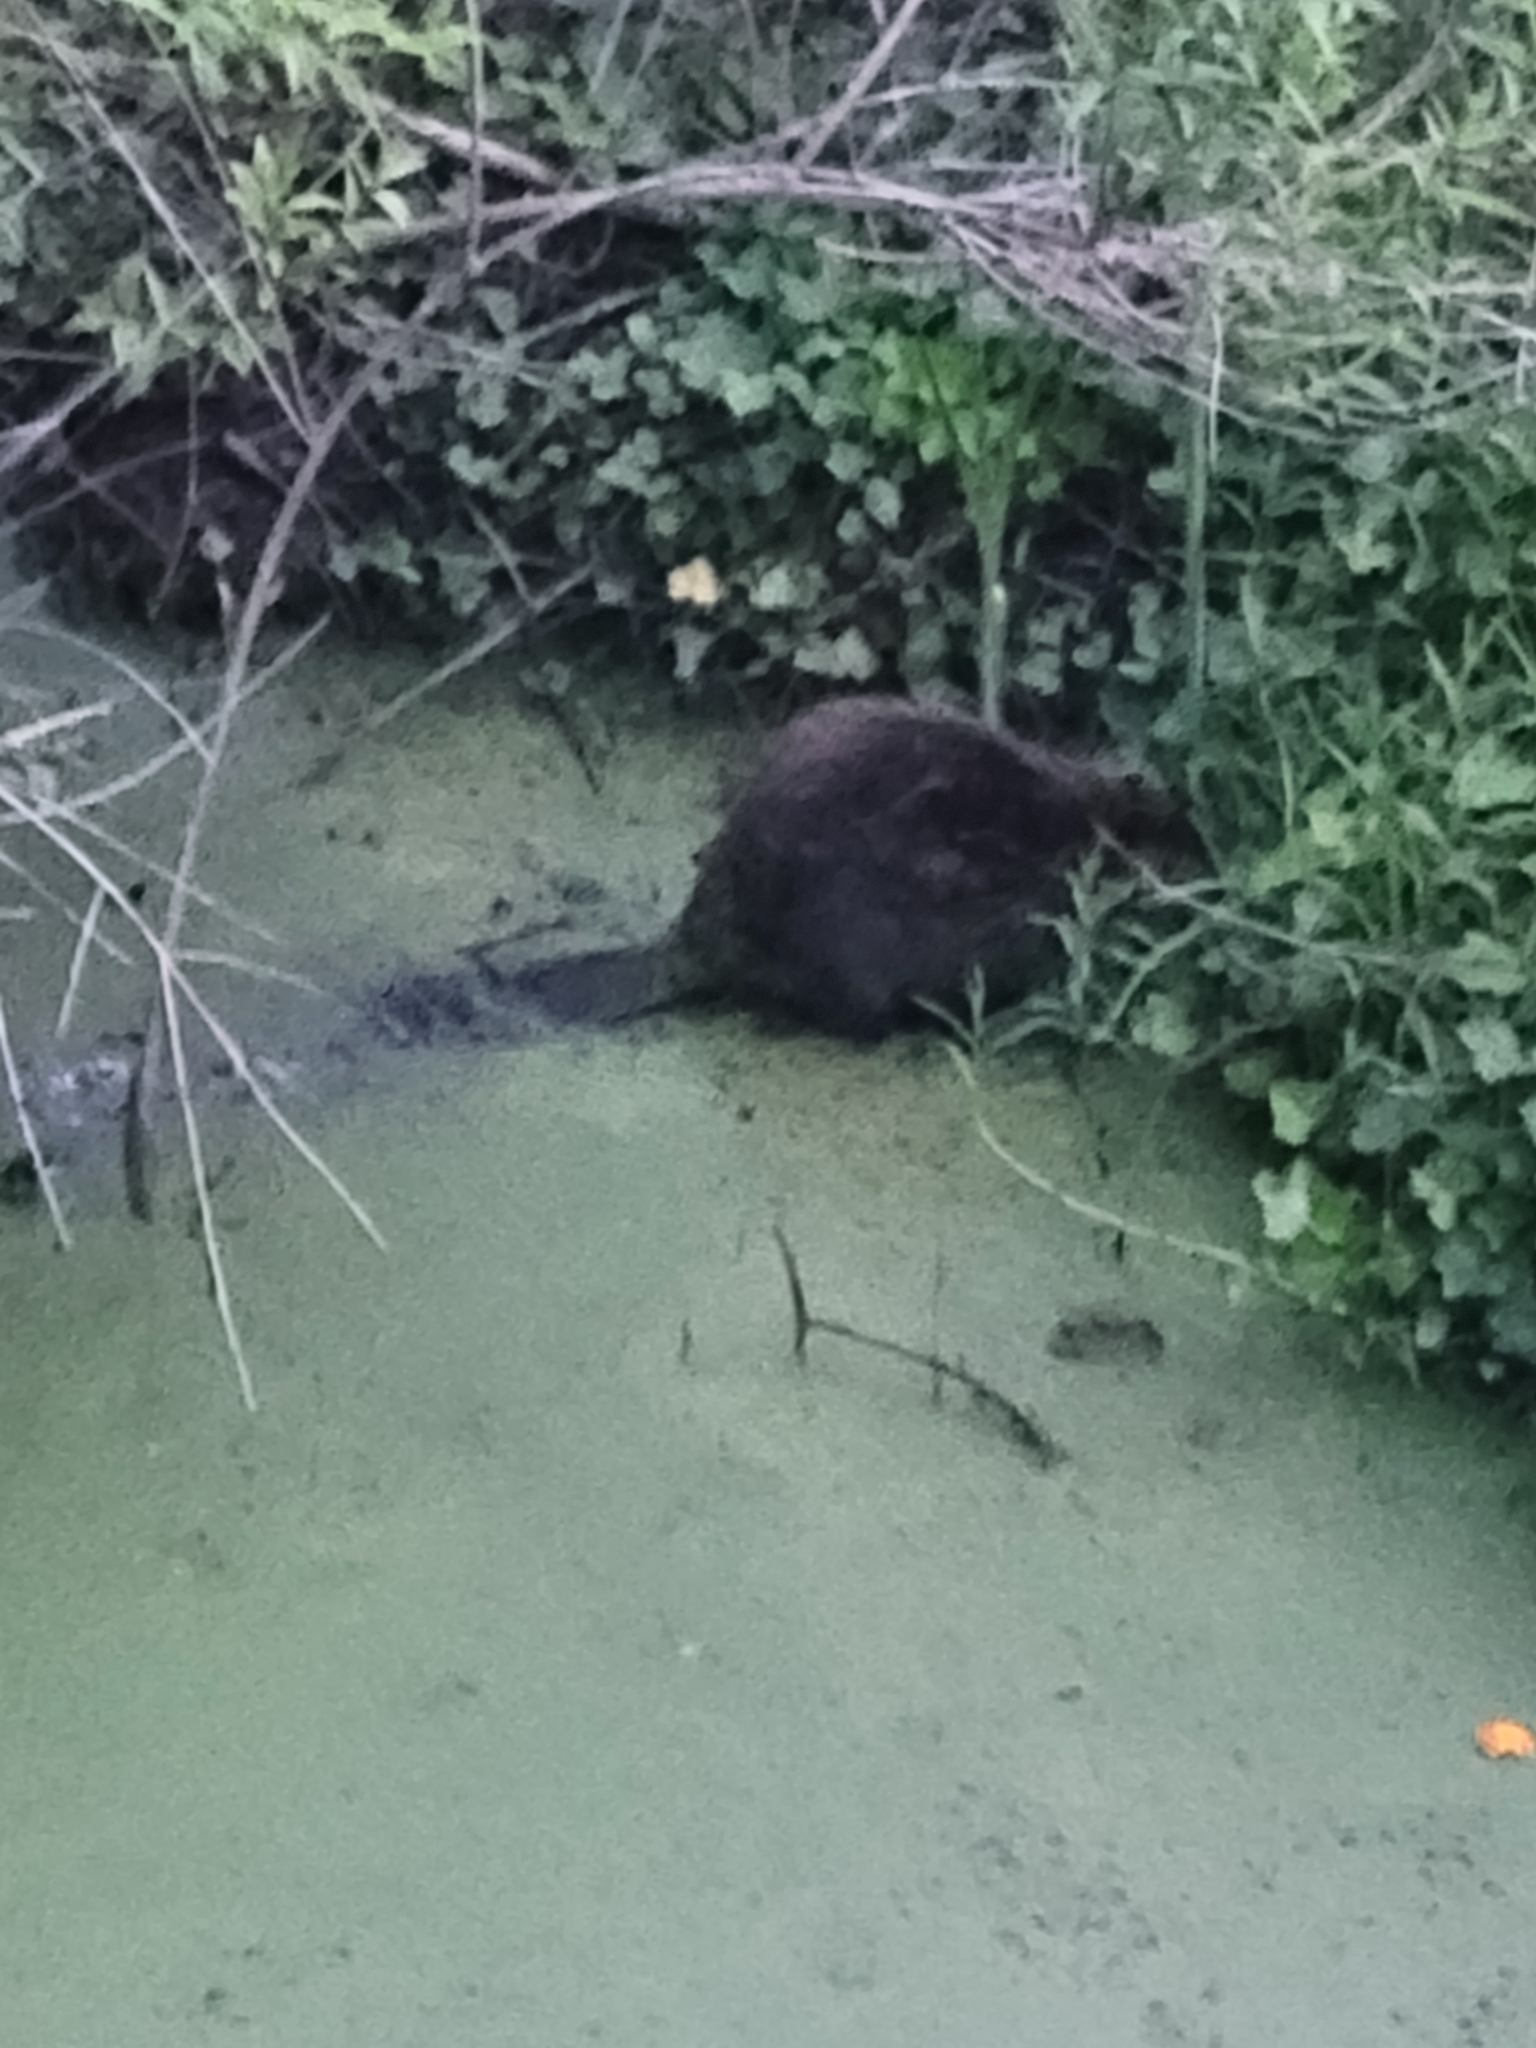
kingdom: Animalia
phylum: Chordata
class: Mammalia
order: Rodentia
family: Castoridae
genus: Castor
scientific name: Castor canadensis
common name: American beaver
